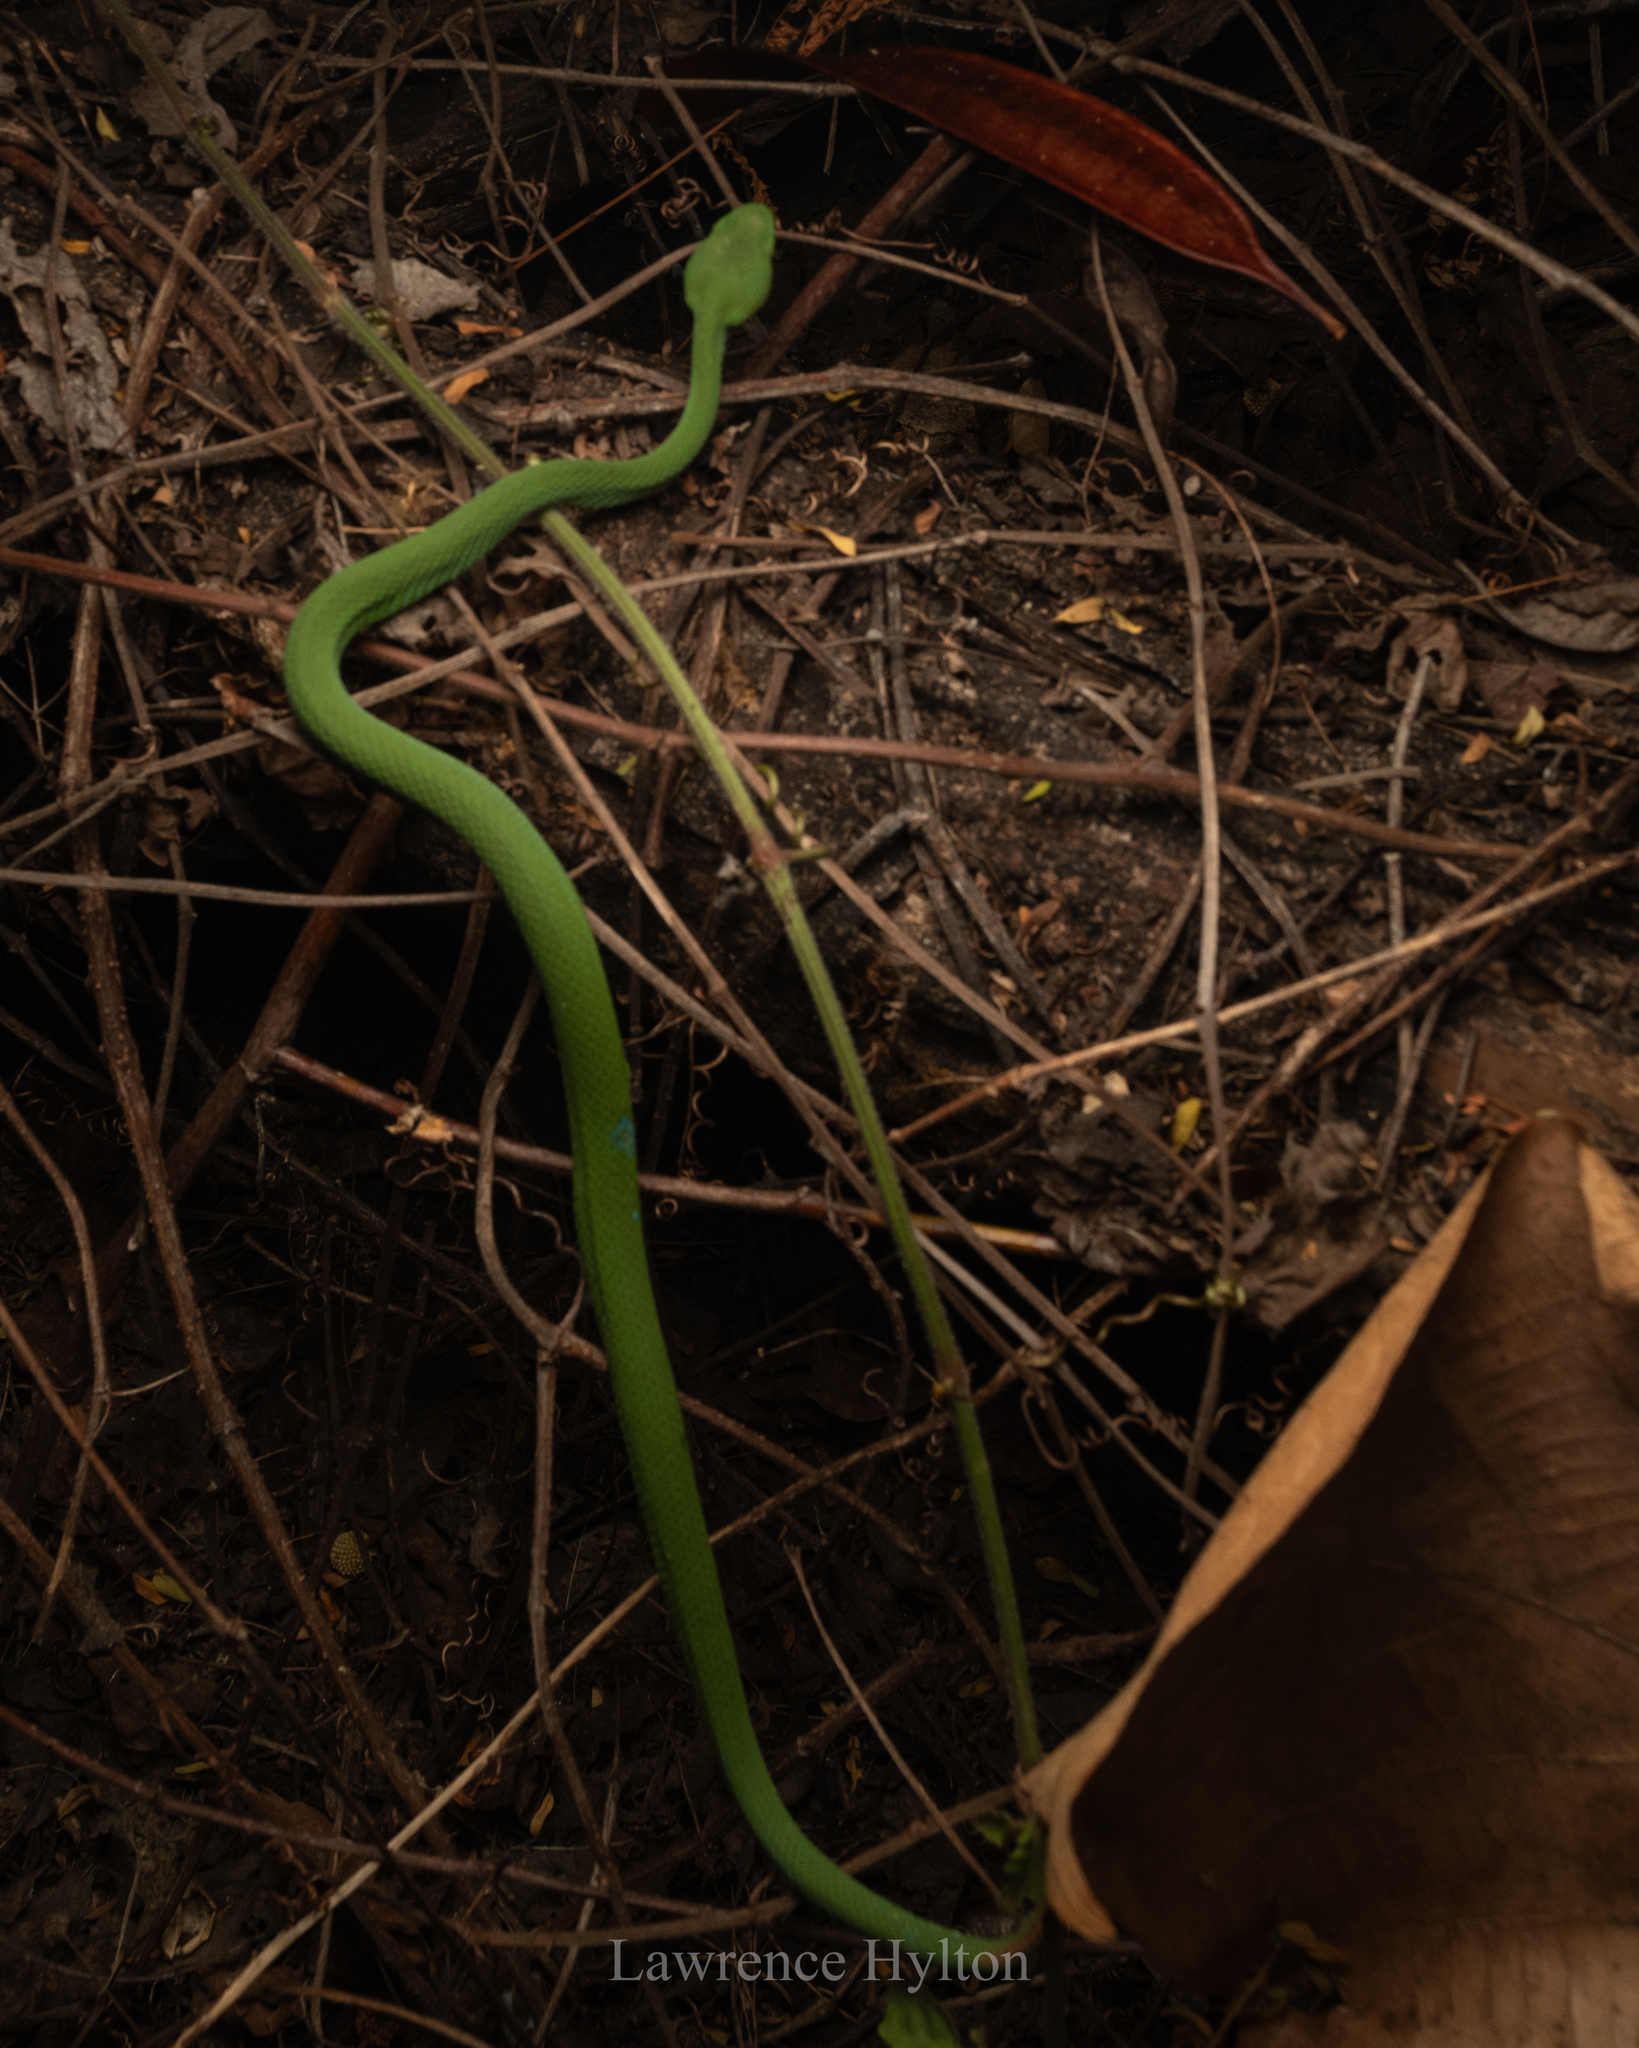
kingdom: Animalia
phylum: Chordata
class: Squamata
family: Viperidae
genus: Trimeresurus
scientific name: Trimeresurus macrops
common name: Kramer's pit viper
